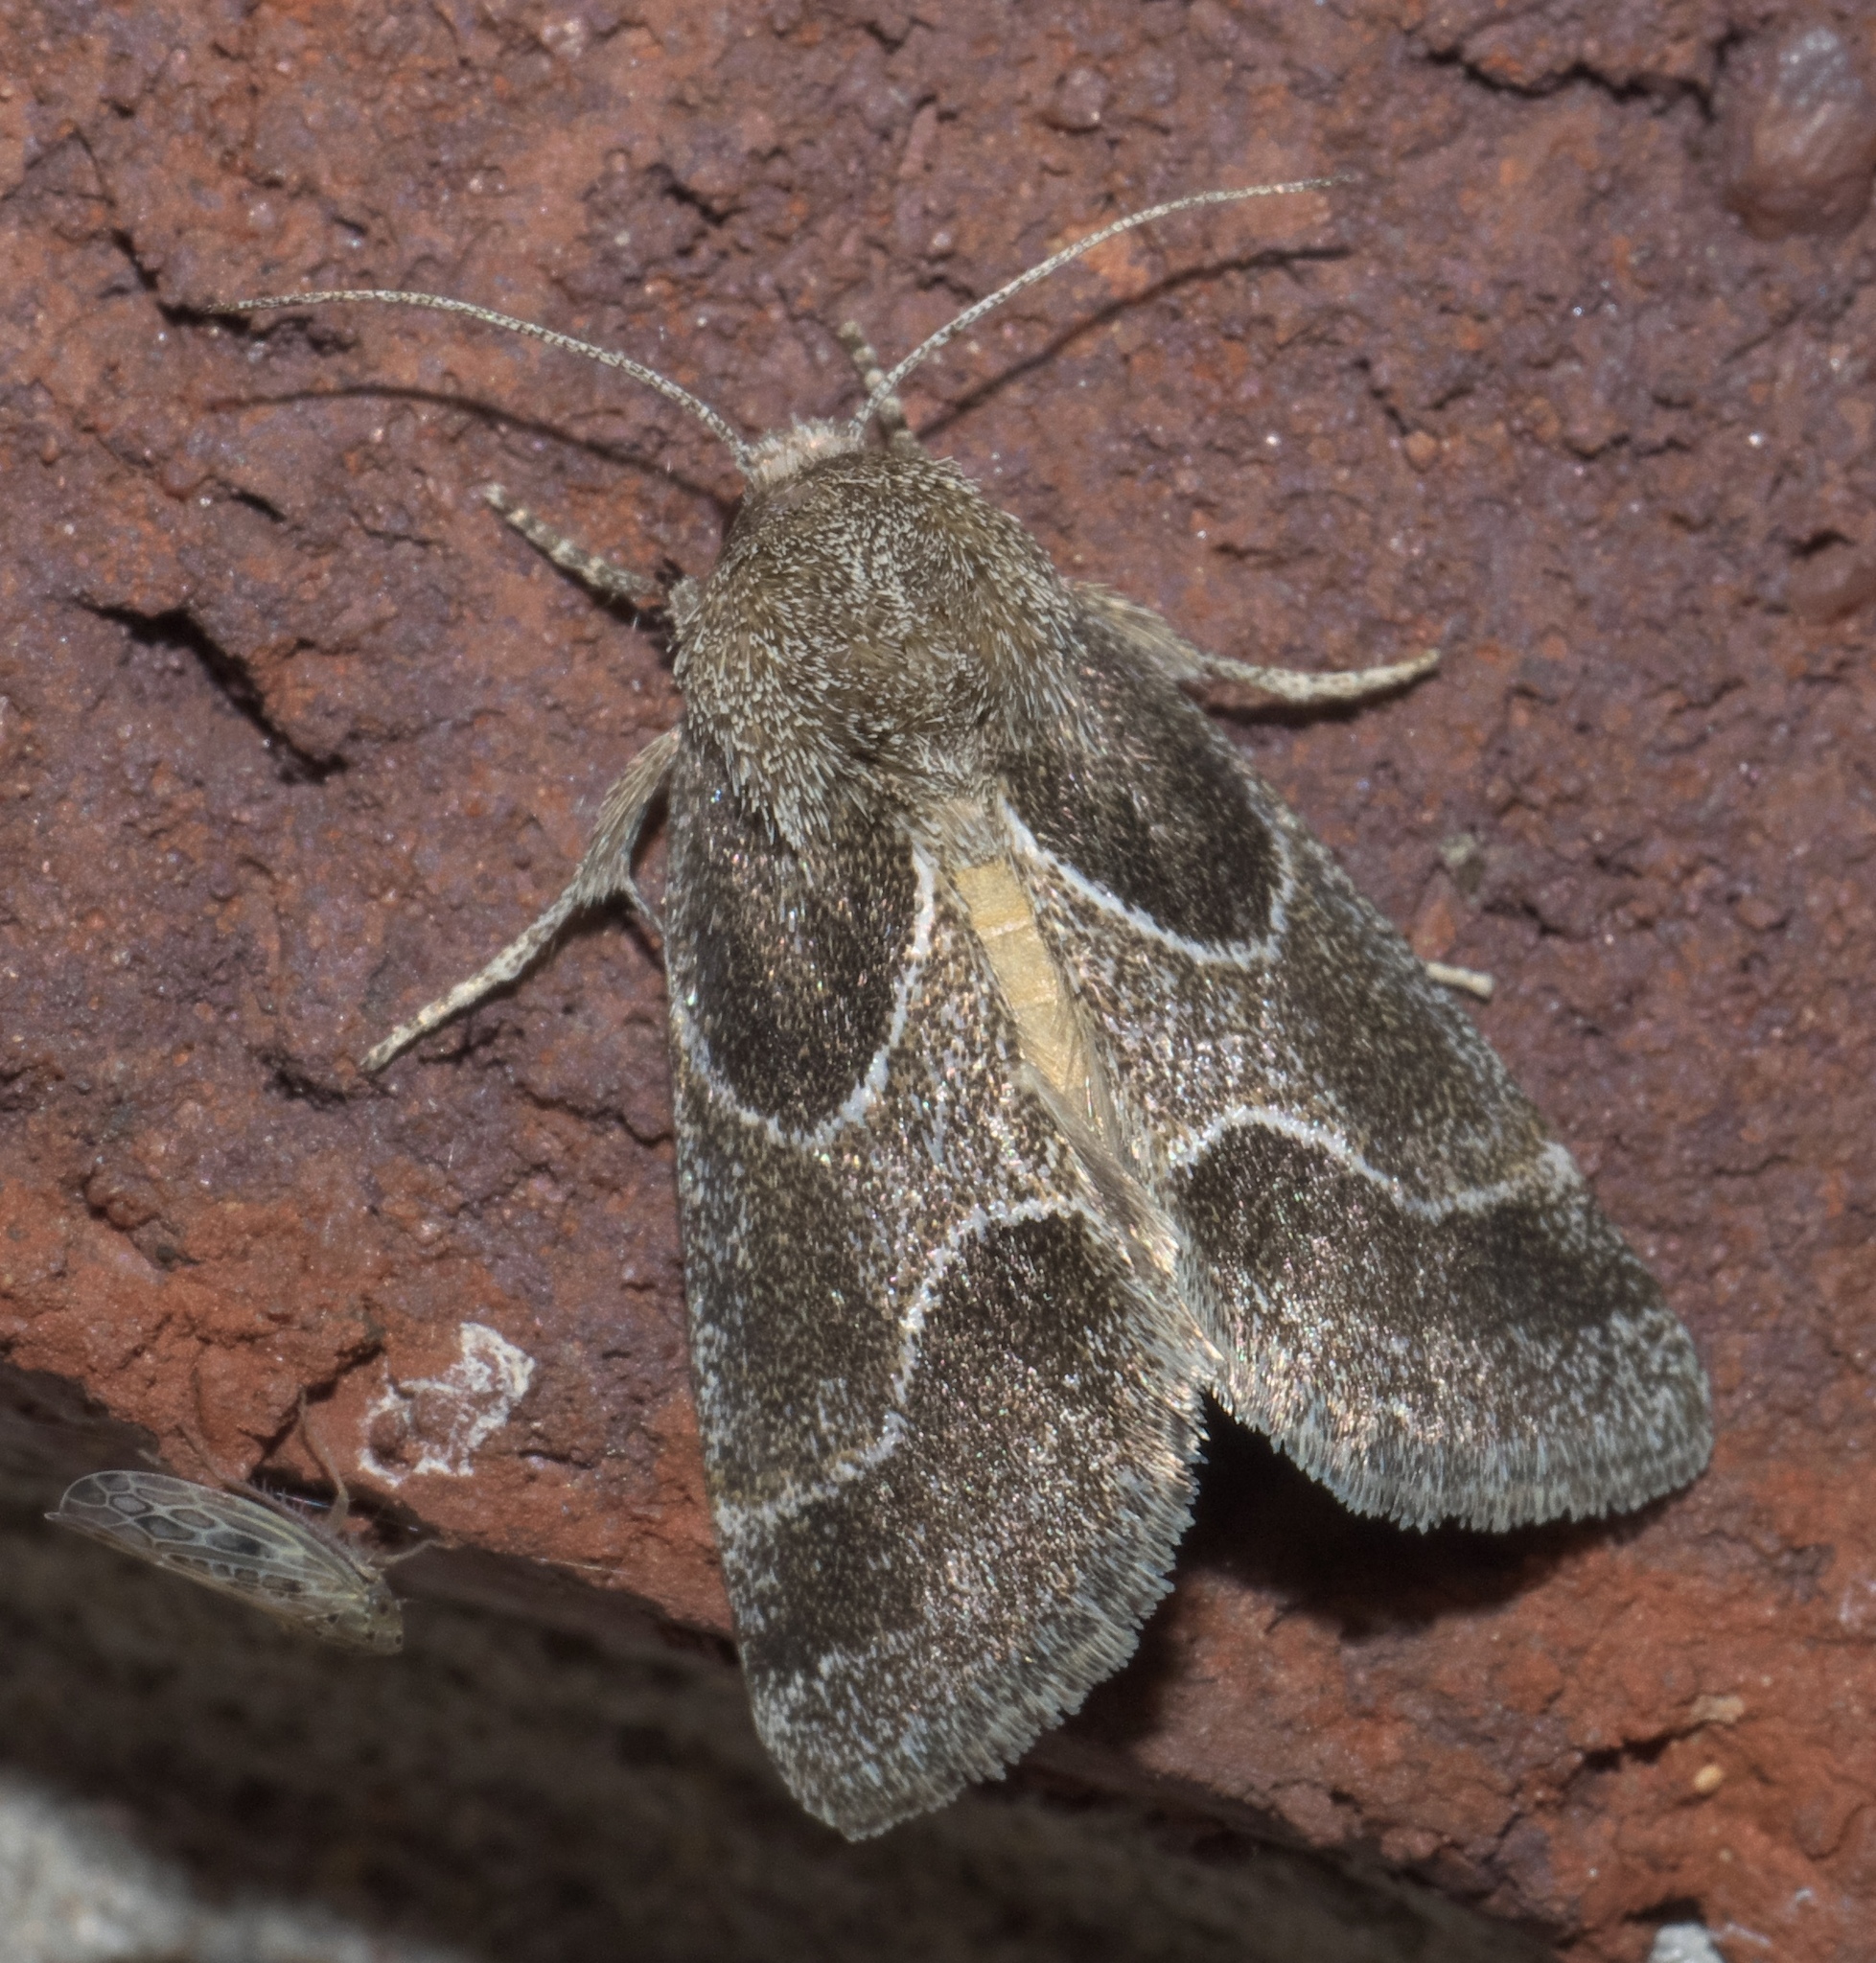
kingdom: Animalia
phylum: Arthropoda
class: Insecta
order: Lepidoptera
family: Noctuidae
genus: Schinia
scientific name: Schinia rivulosa
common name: Scarce meal-moth
